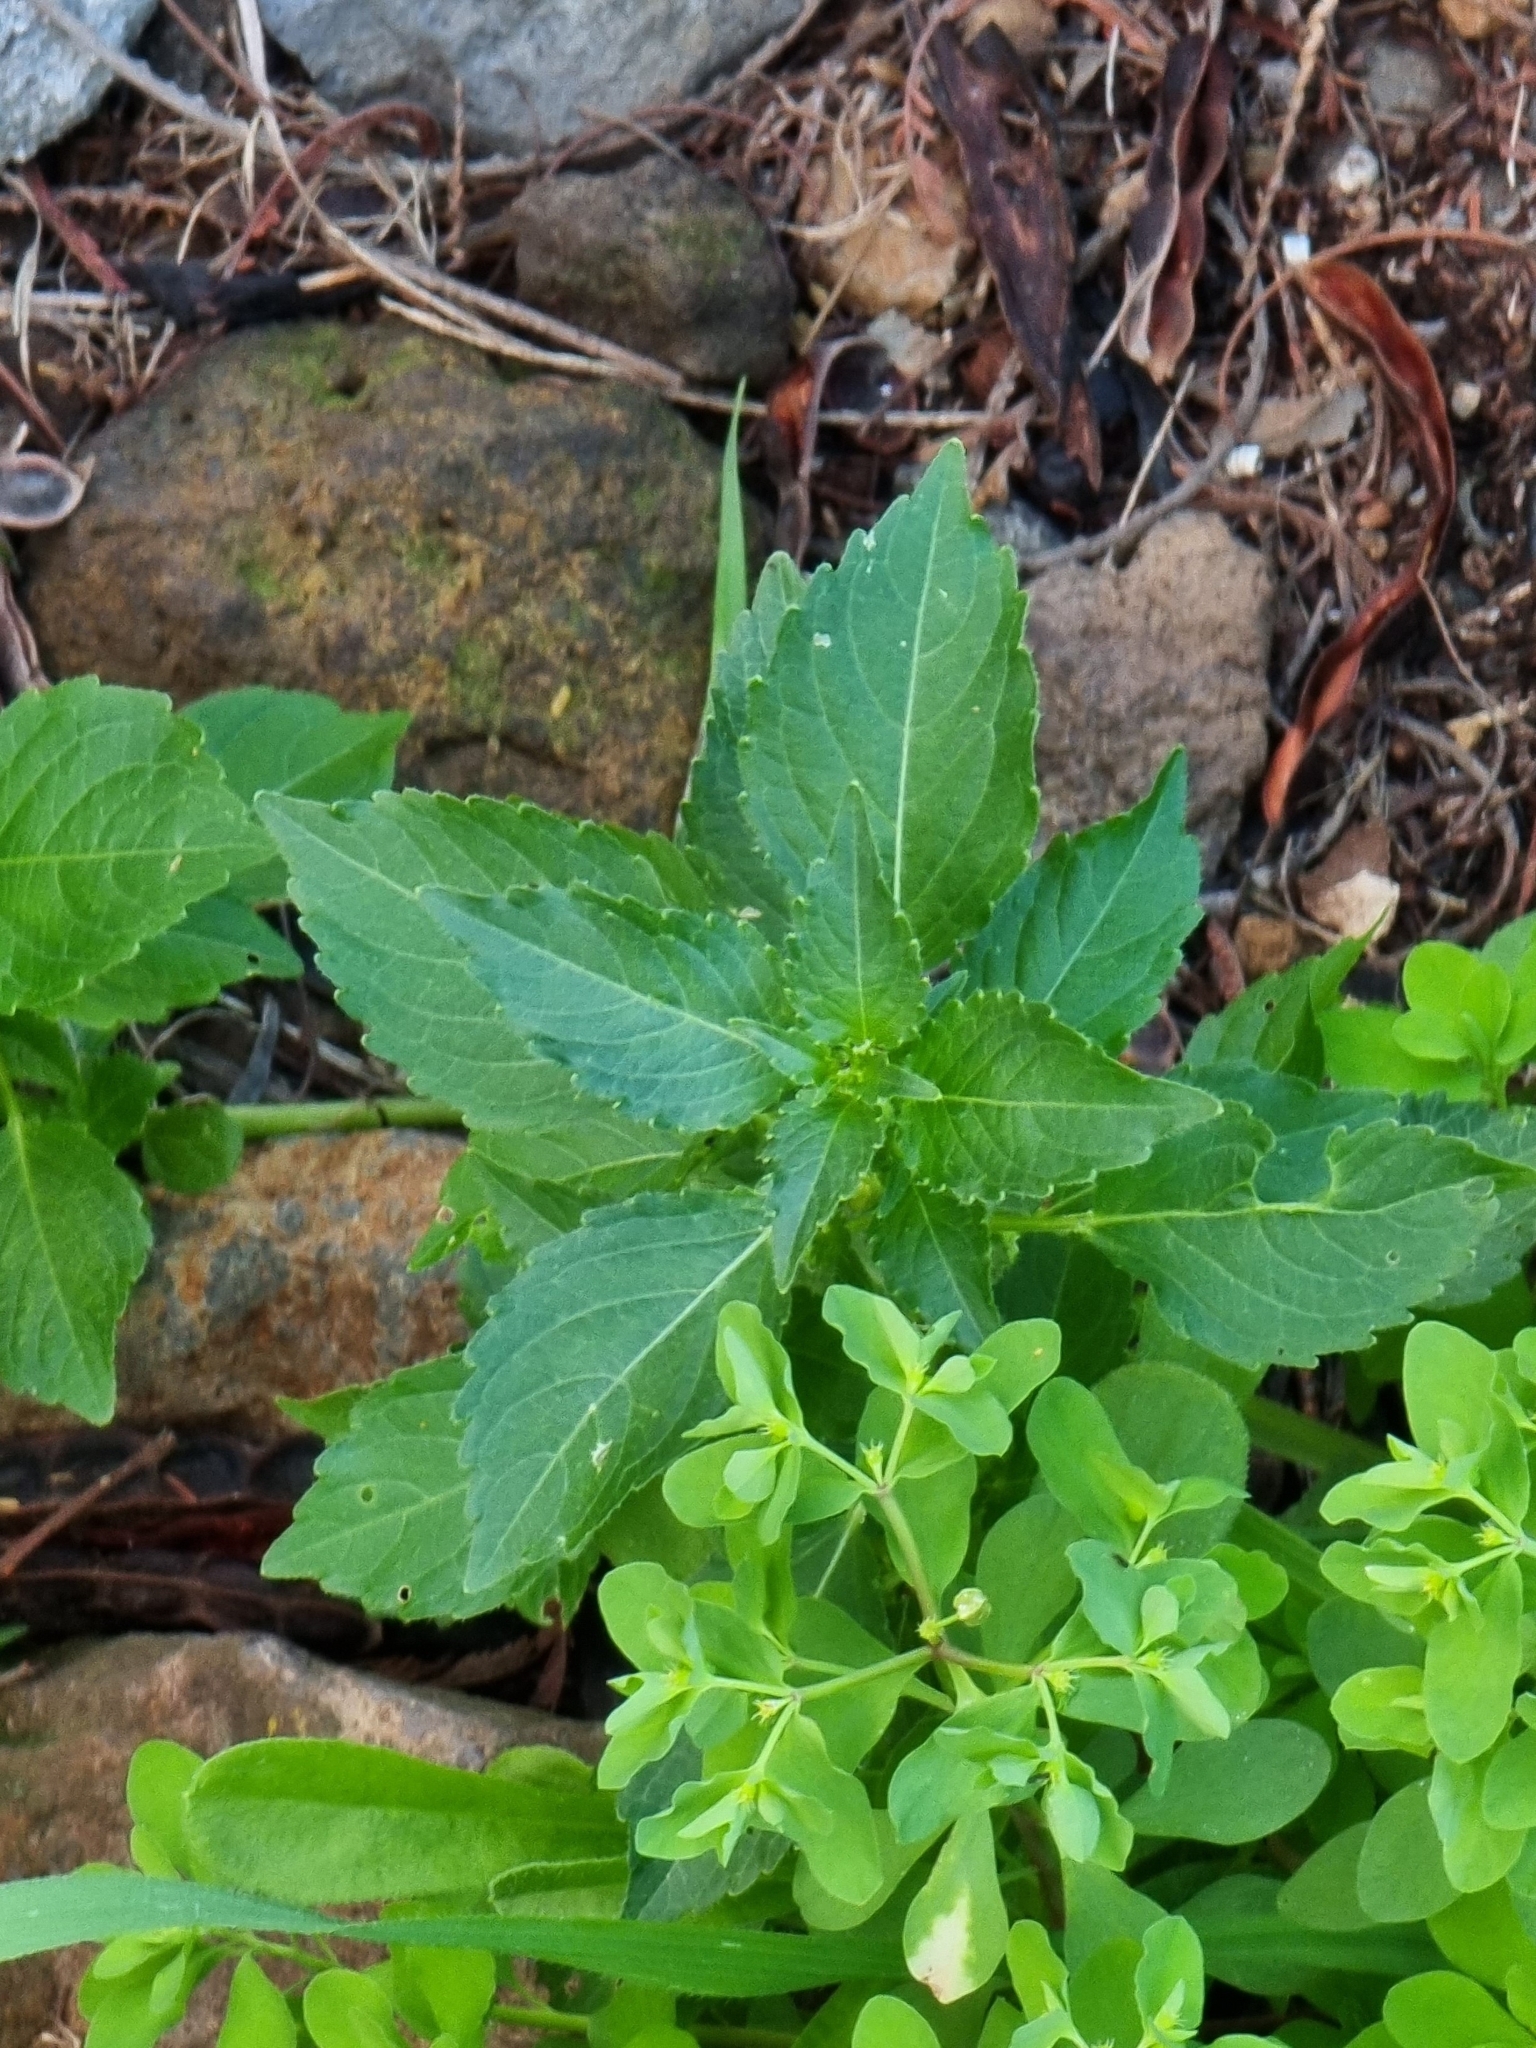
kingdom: Plantae
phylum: Tracheophyta
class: Magnoliopsida
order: Malpighiales
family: Euphorbiaceae
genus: Mercurialis
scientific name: Mercurialis annua
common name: Annual mercury
